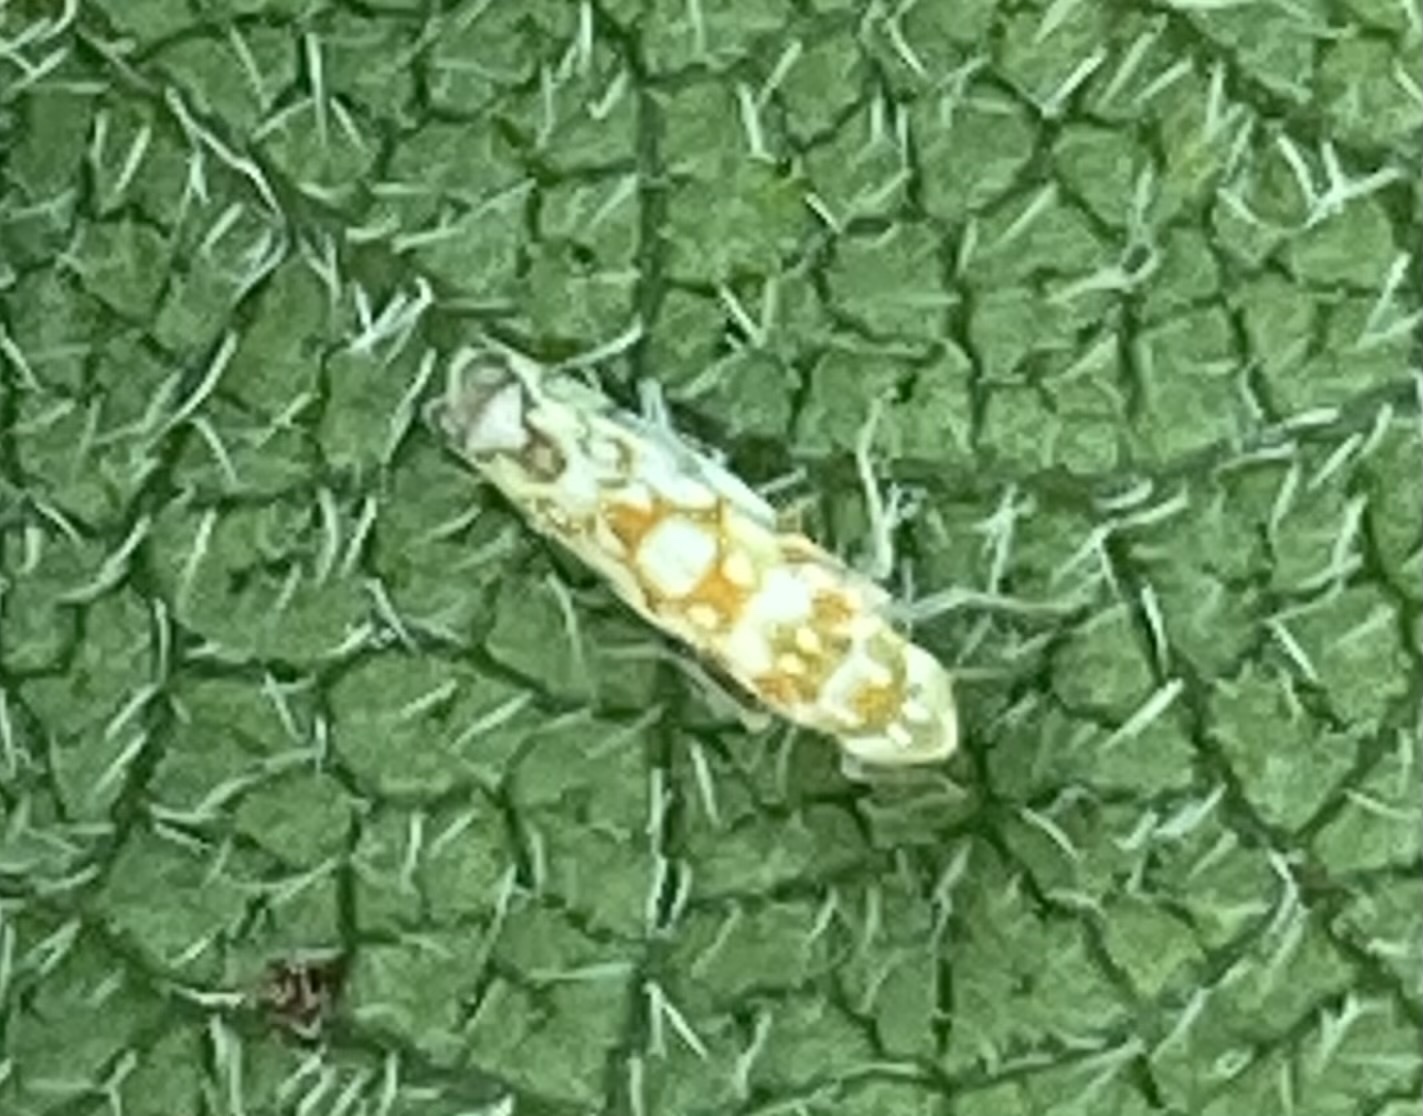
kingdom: Animalia
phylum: Arthropoda
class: Insecta
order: Hemiptera
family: Cicadellidae
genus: Protalebra
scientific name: Protalebra nexa
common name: Leafhopper
